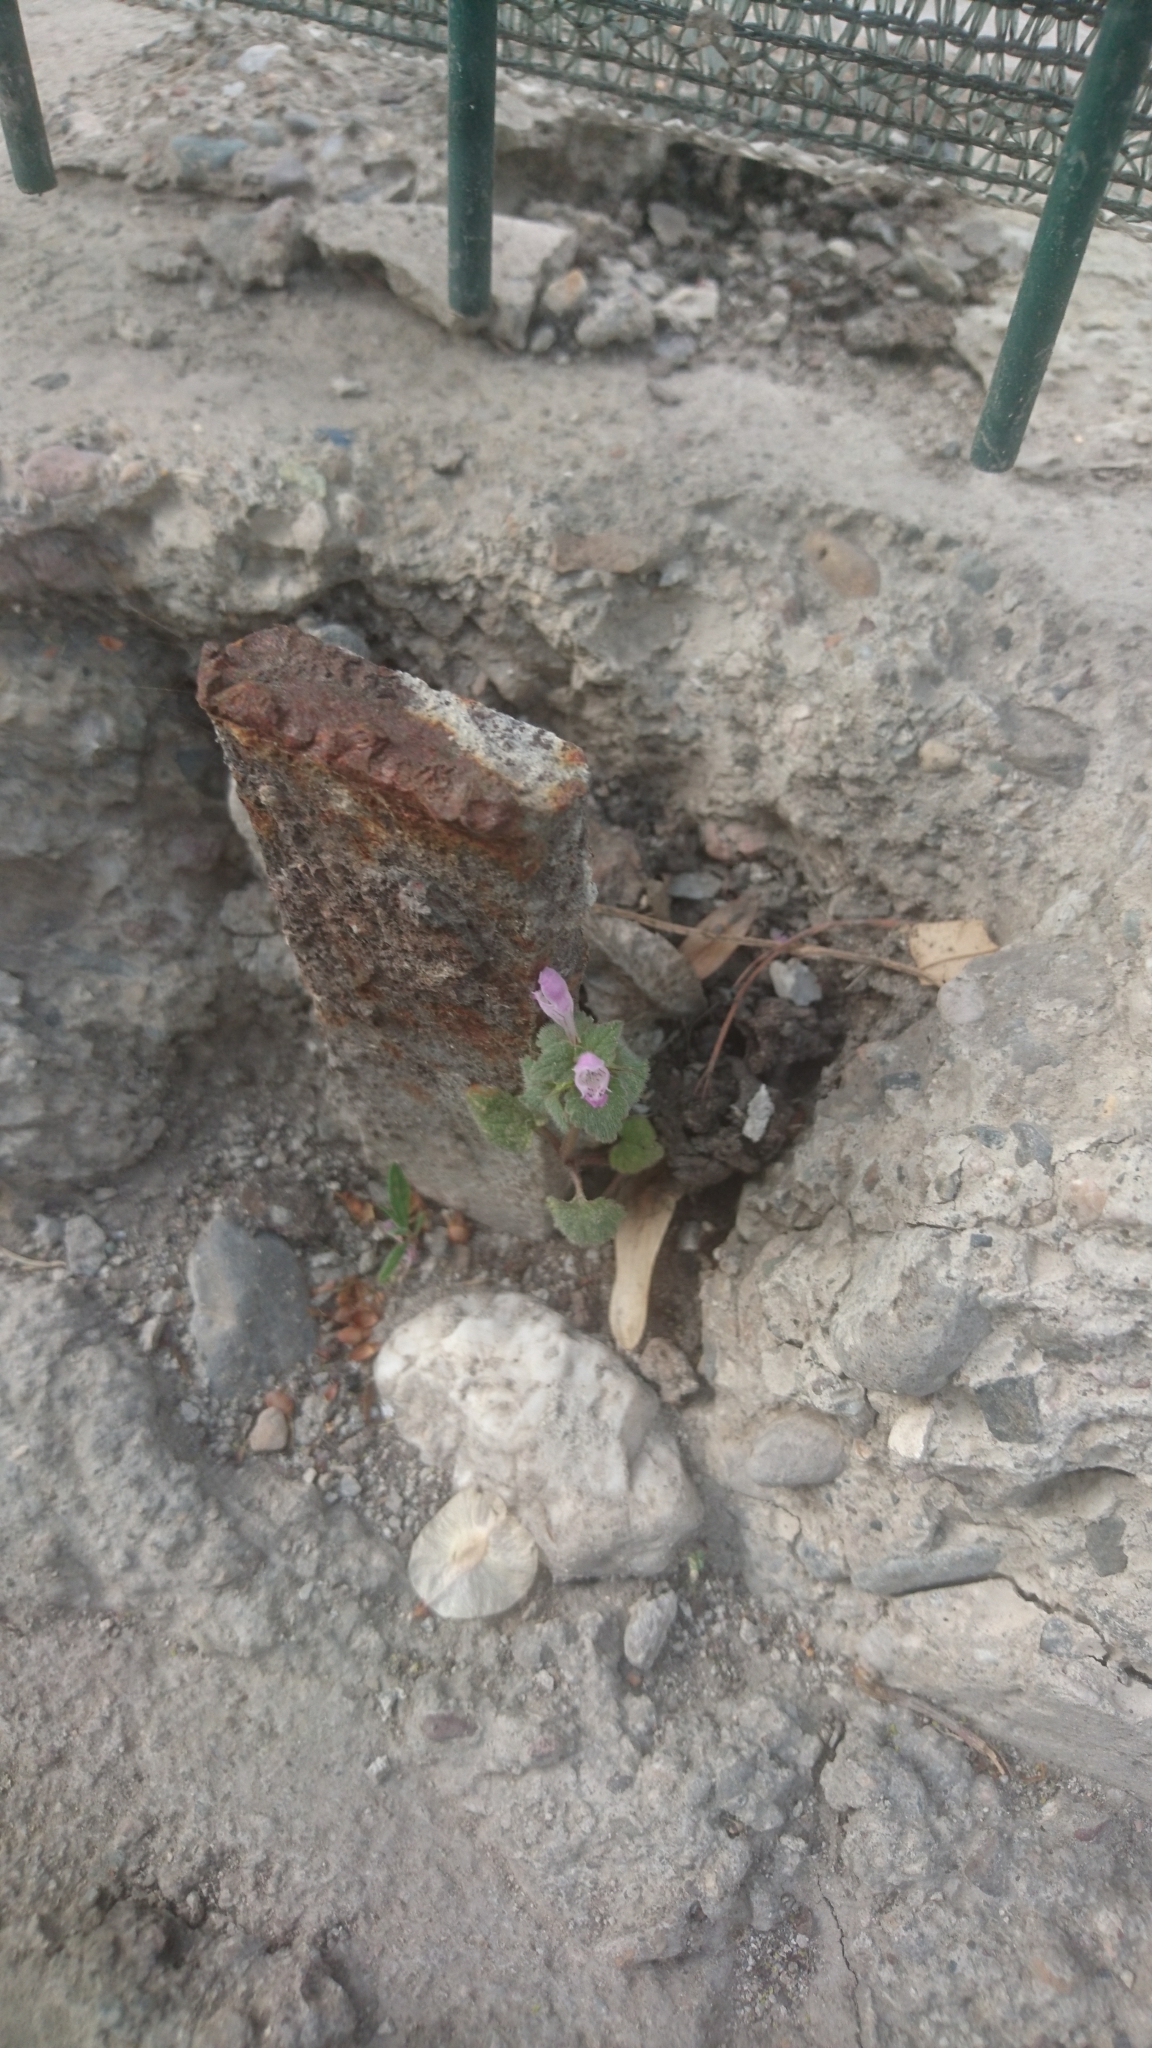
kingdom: Plantae
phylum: Tracheophyta
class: Magnoliopsida
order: Lamiales
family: Lamiaceae
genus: Lamium
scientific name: Lamium garganicum
